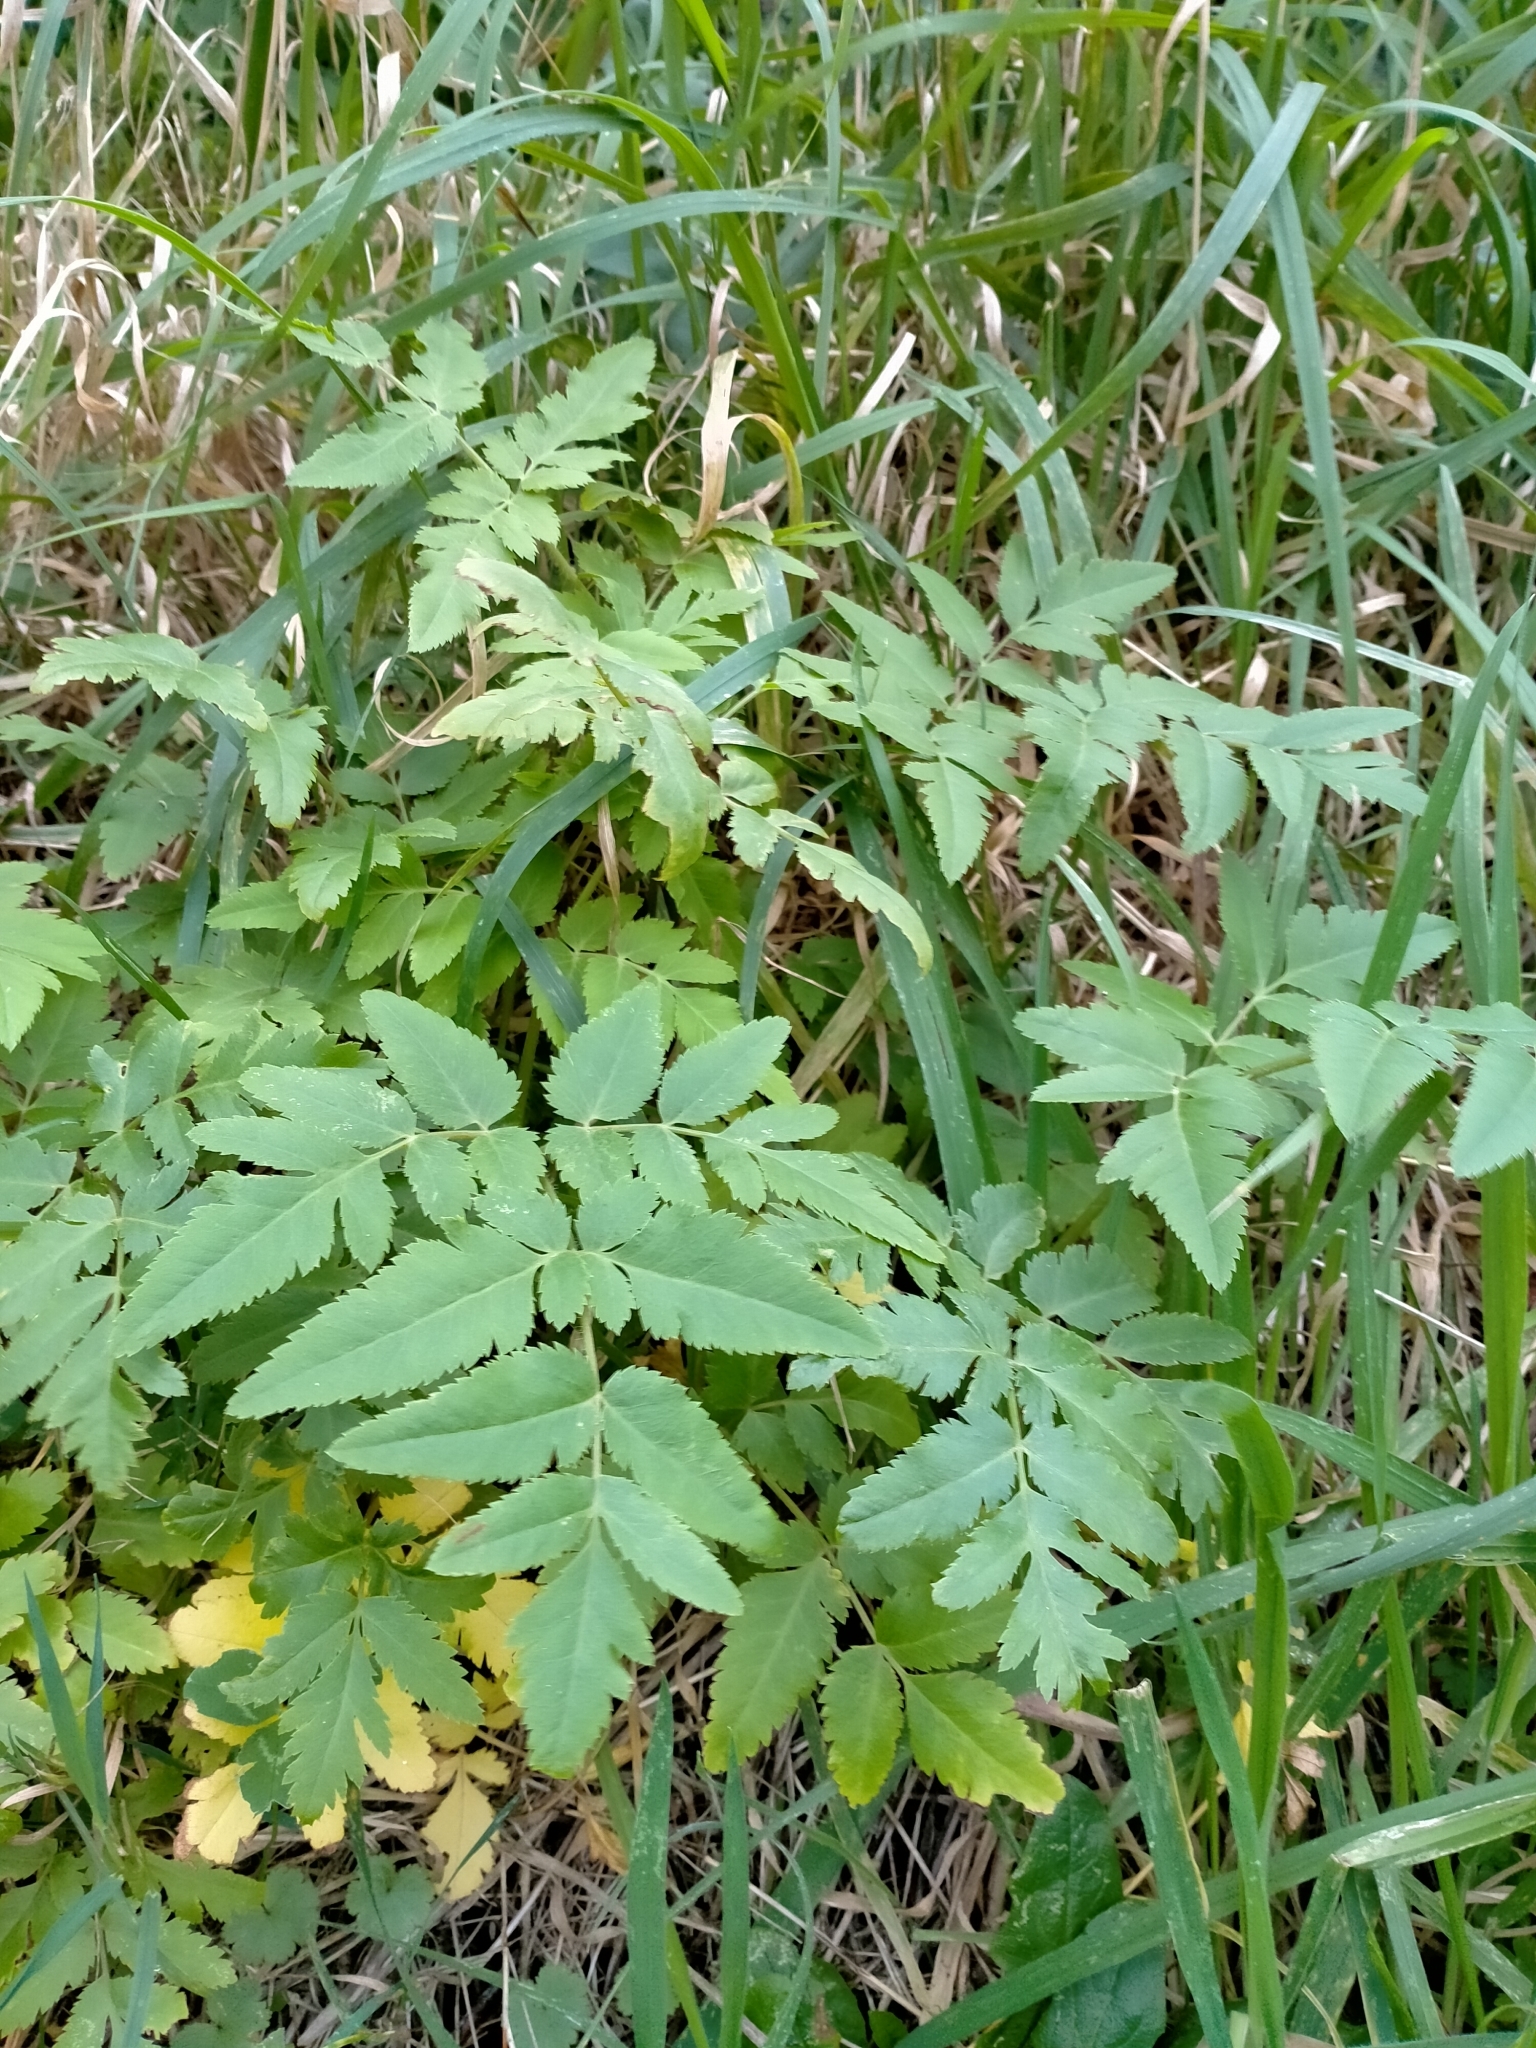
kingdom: Plantae
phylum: Tracheophyta
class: Magnoliopsida
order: Apiales
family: Apiaceae
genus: Daucus
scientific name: Daucus decipiens
